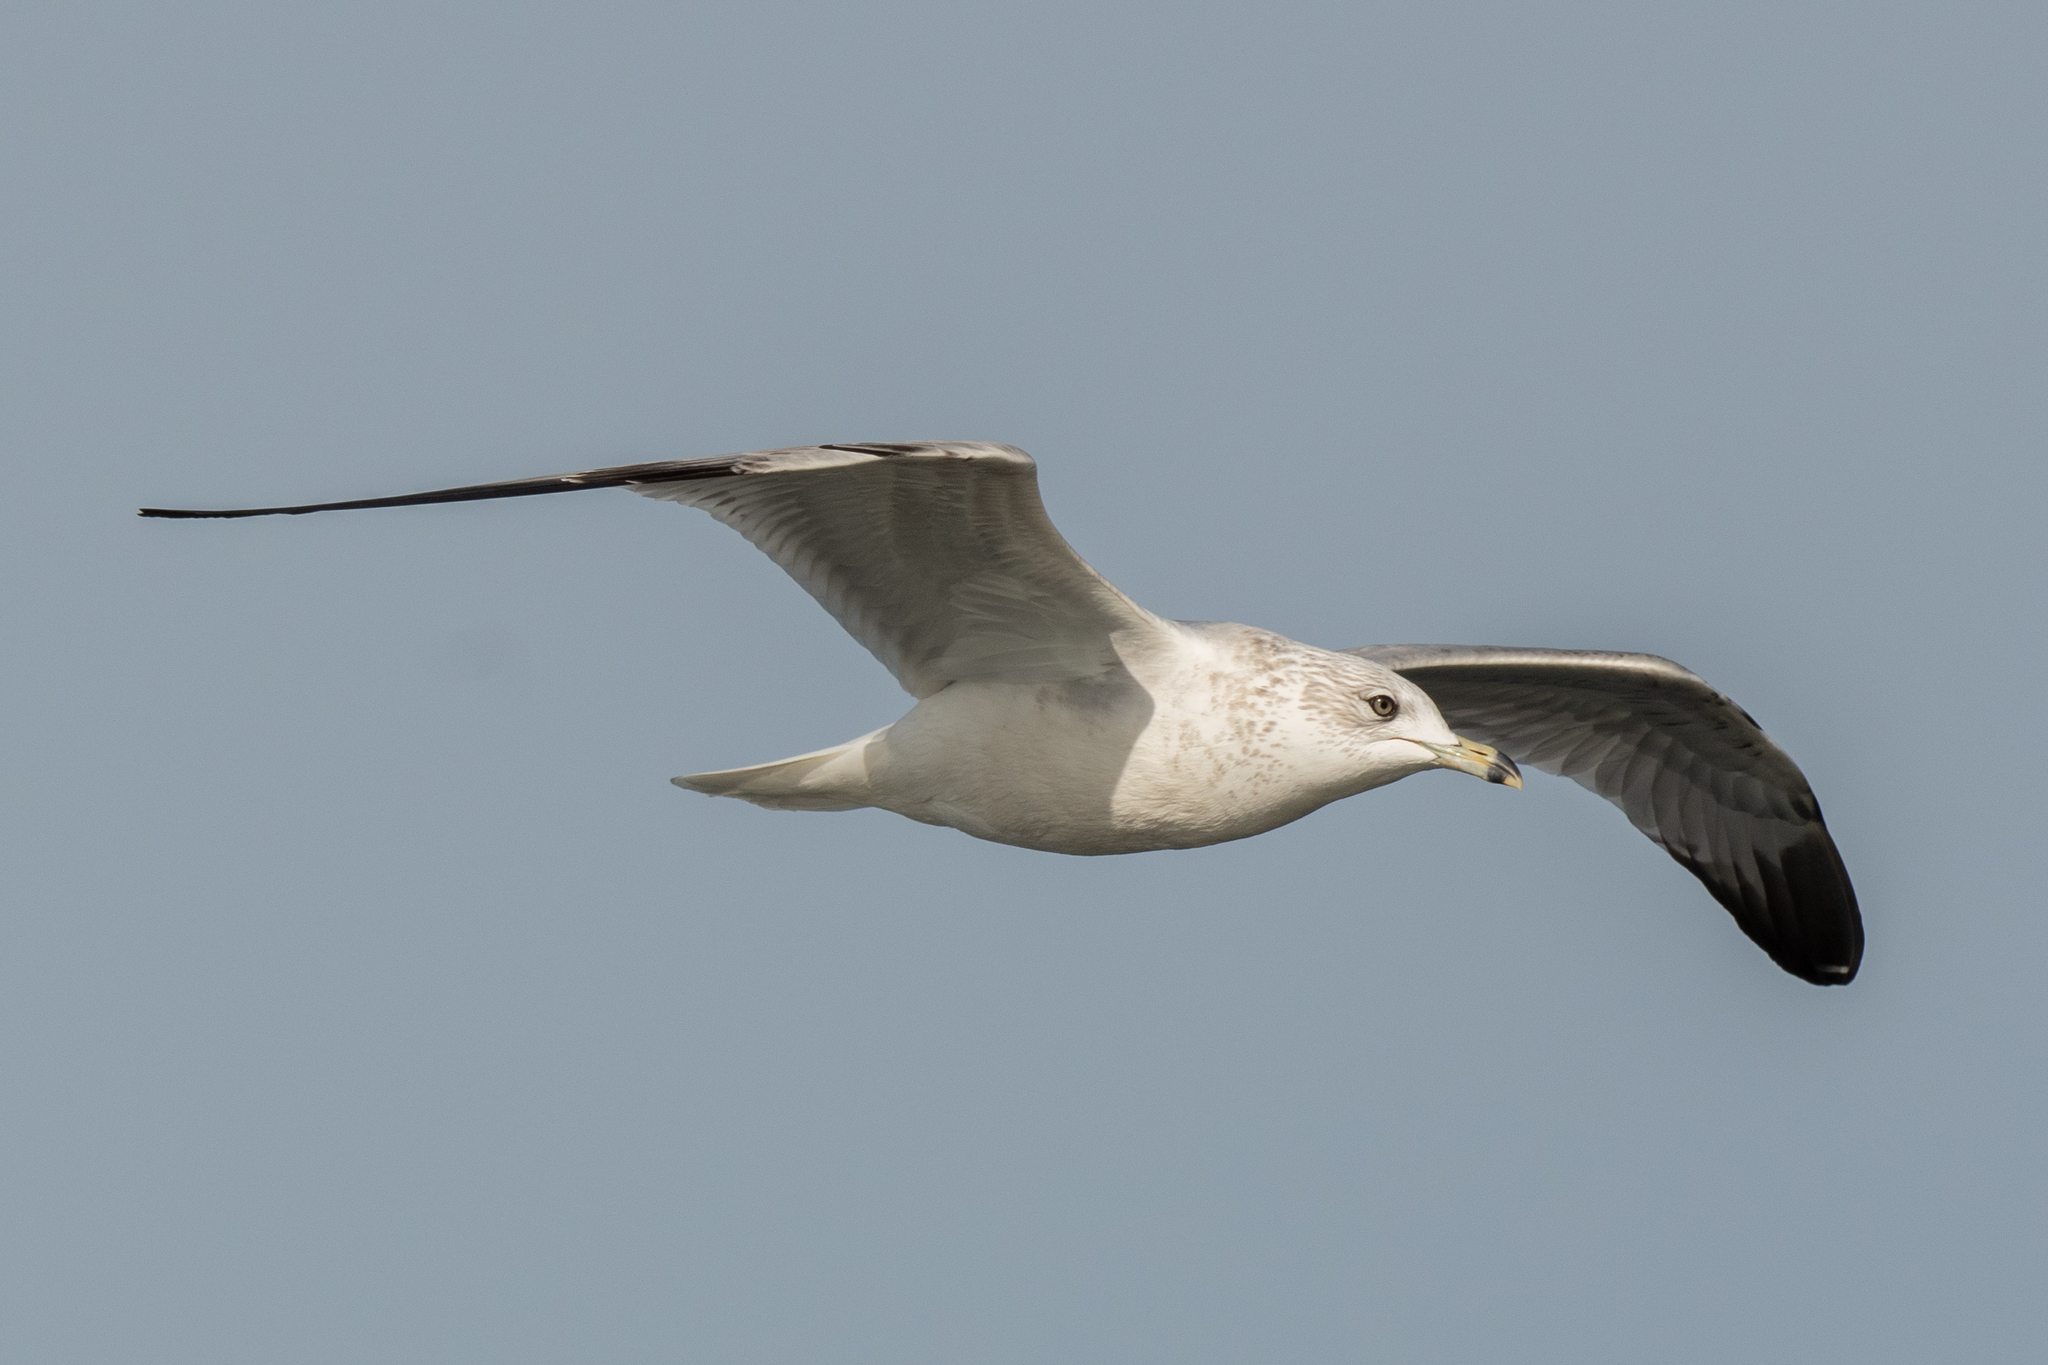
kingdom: Animalia
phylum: Chordata
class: Aves
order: Charadriiformes
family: Laridae
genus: Larus
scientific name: Larus delawarensis
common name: Ring-billed gull
